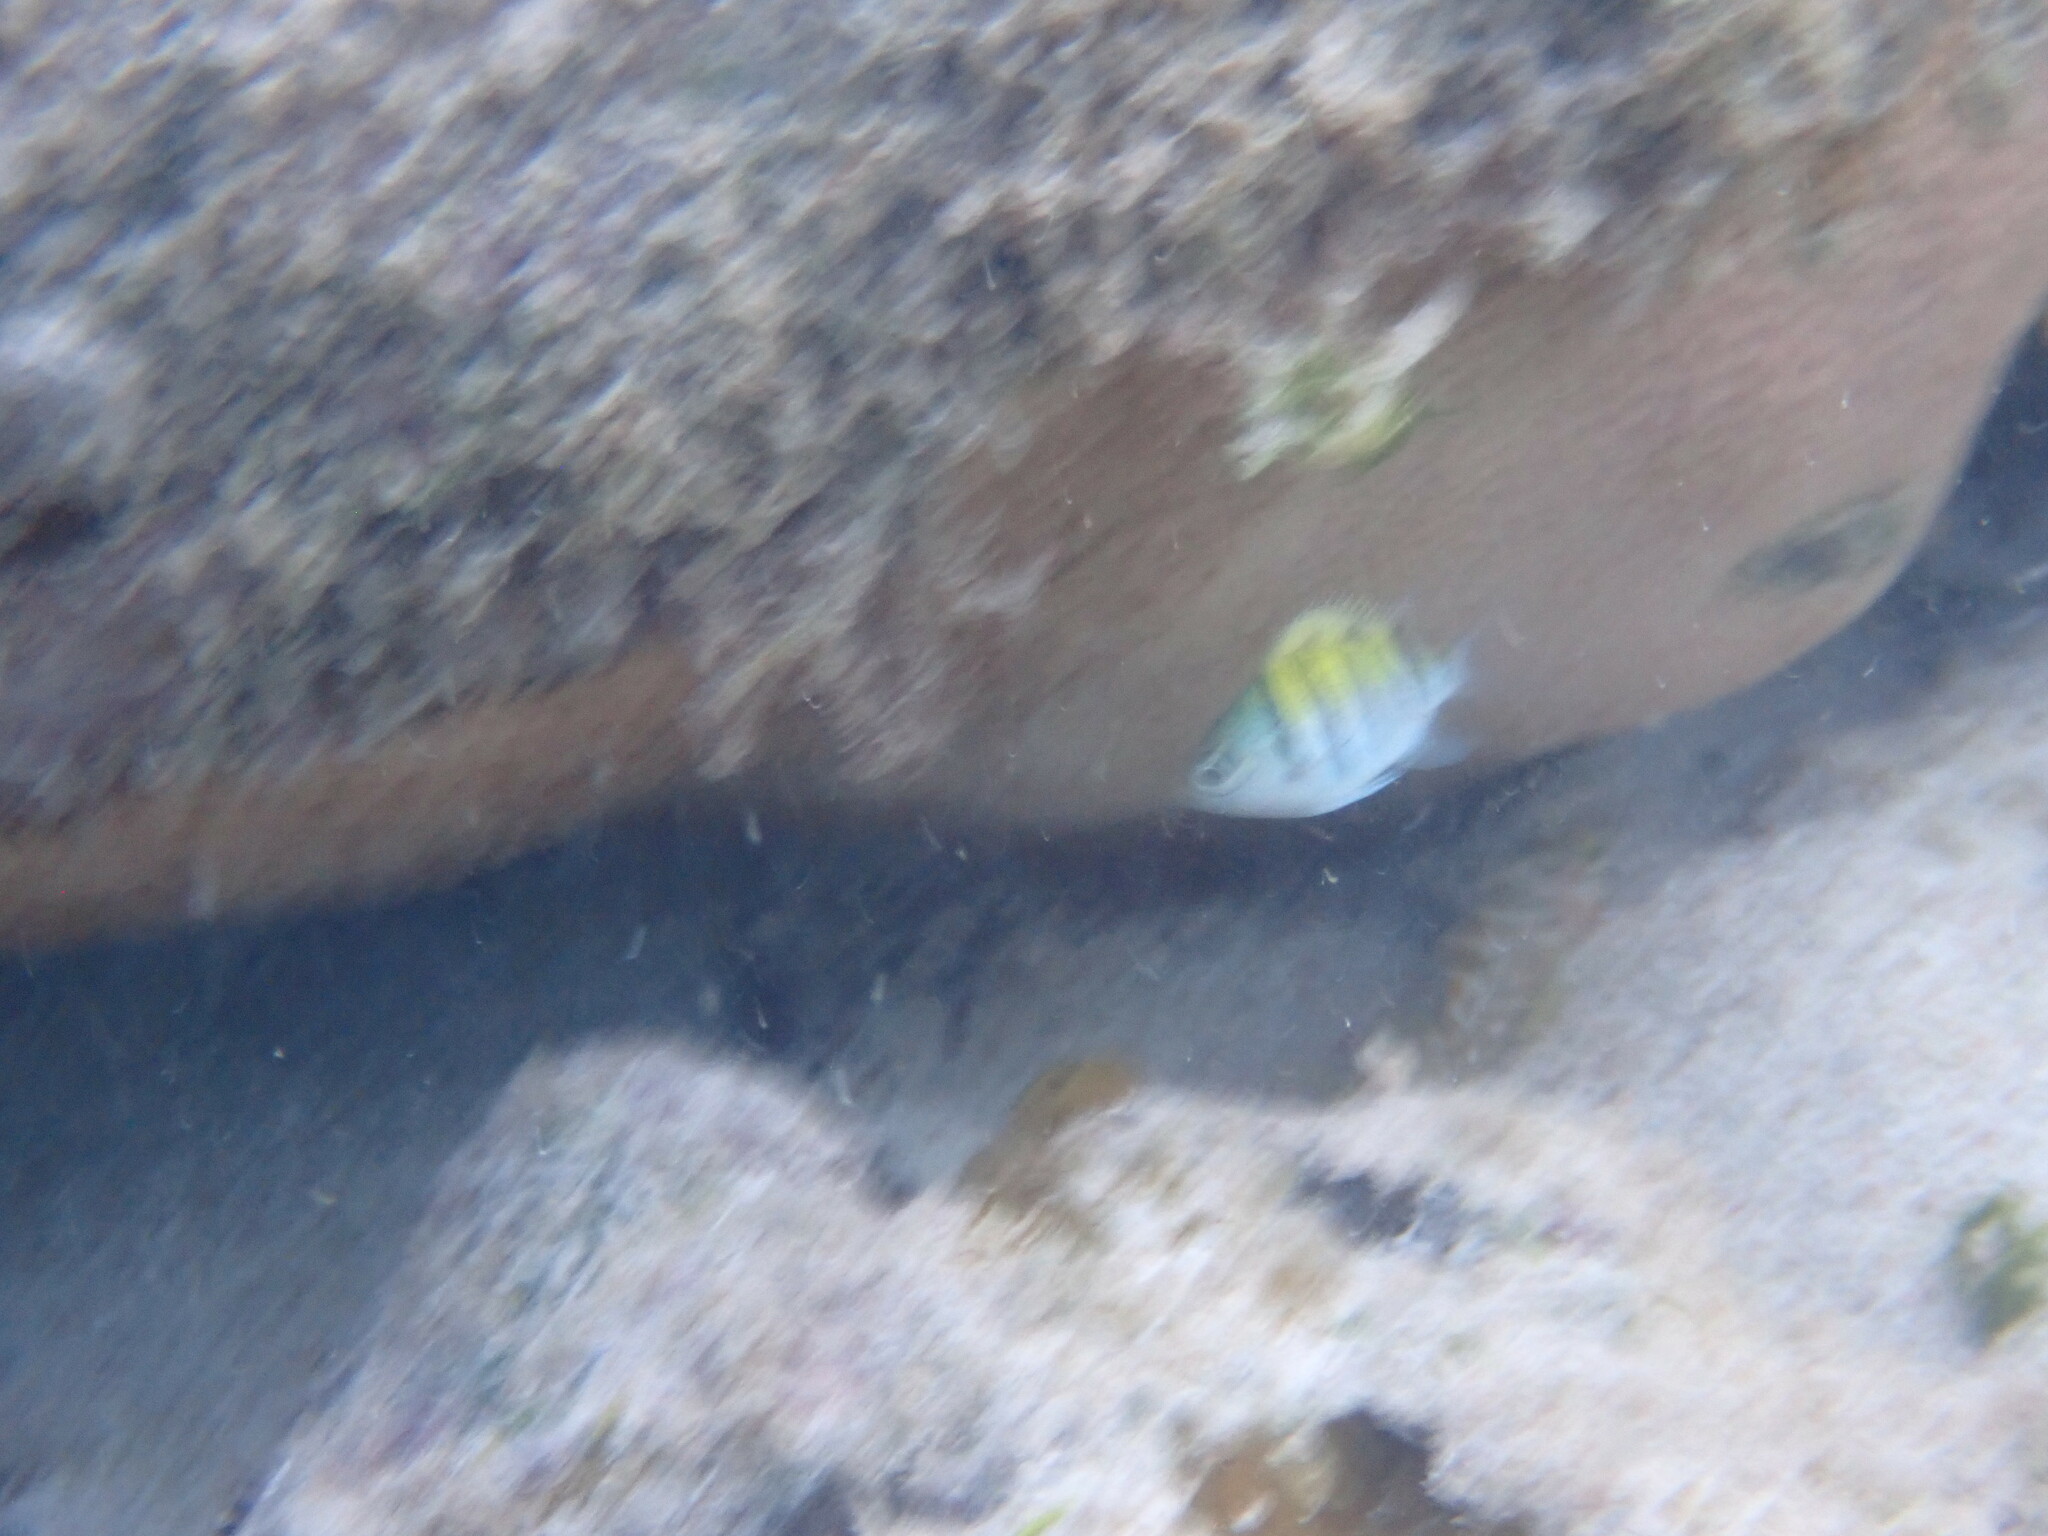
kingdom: Animalia
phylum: Chordata
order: Perciformes
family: Pomacentridae
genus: Abudefduf
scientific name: Abudefduf saxatilis
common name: Sergeant major
